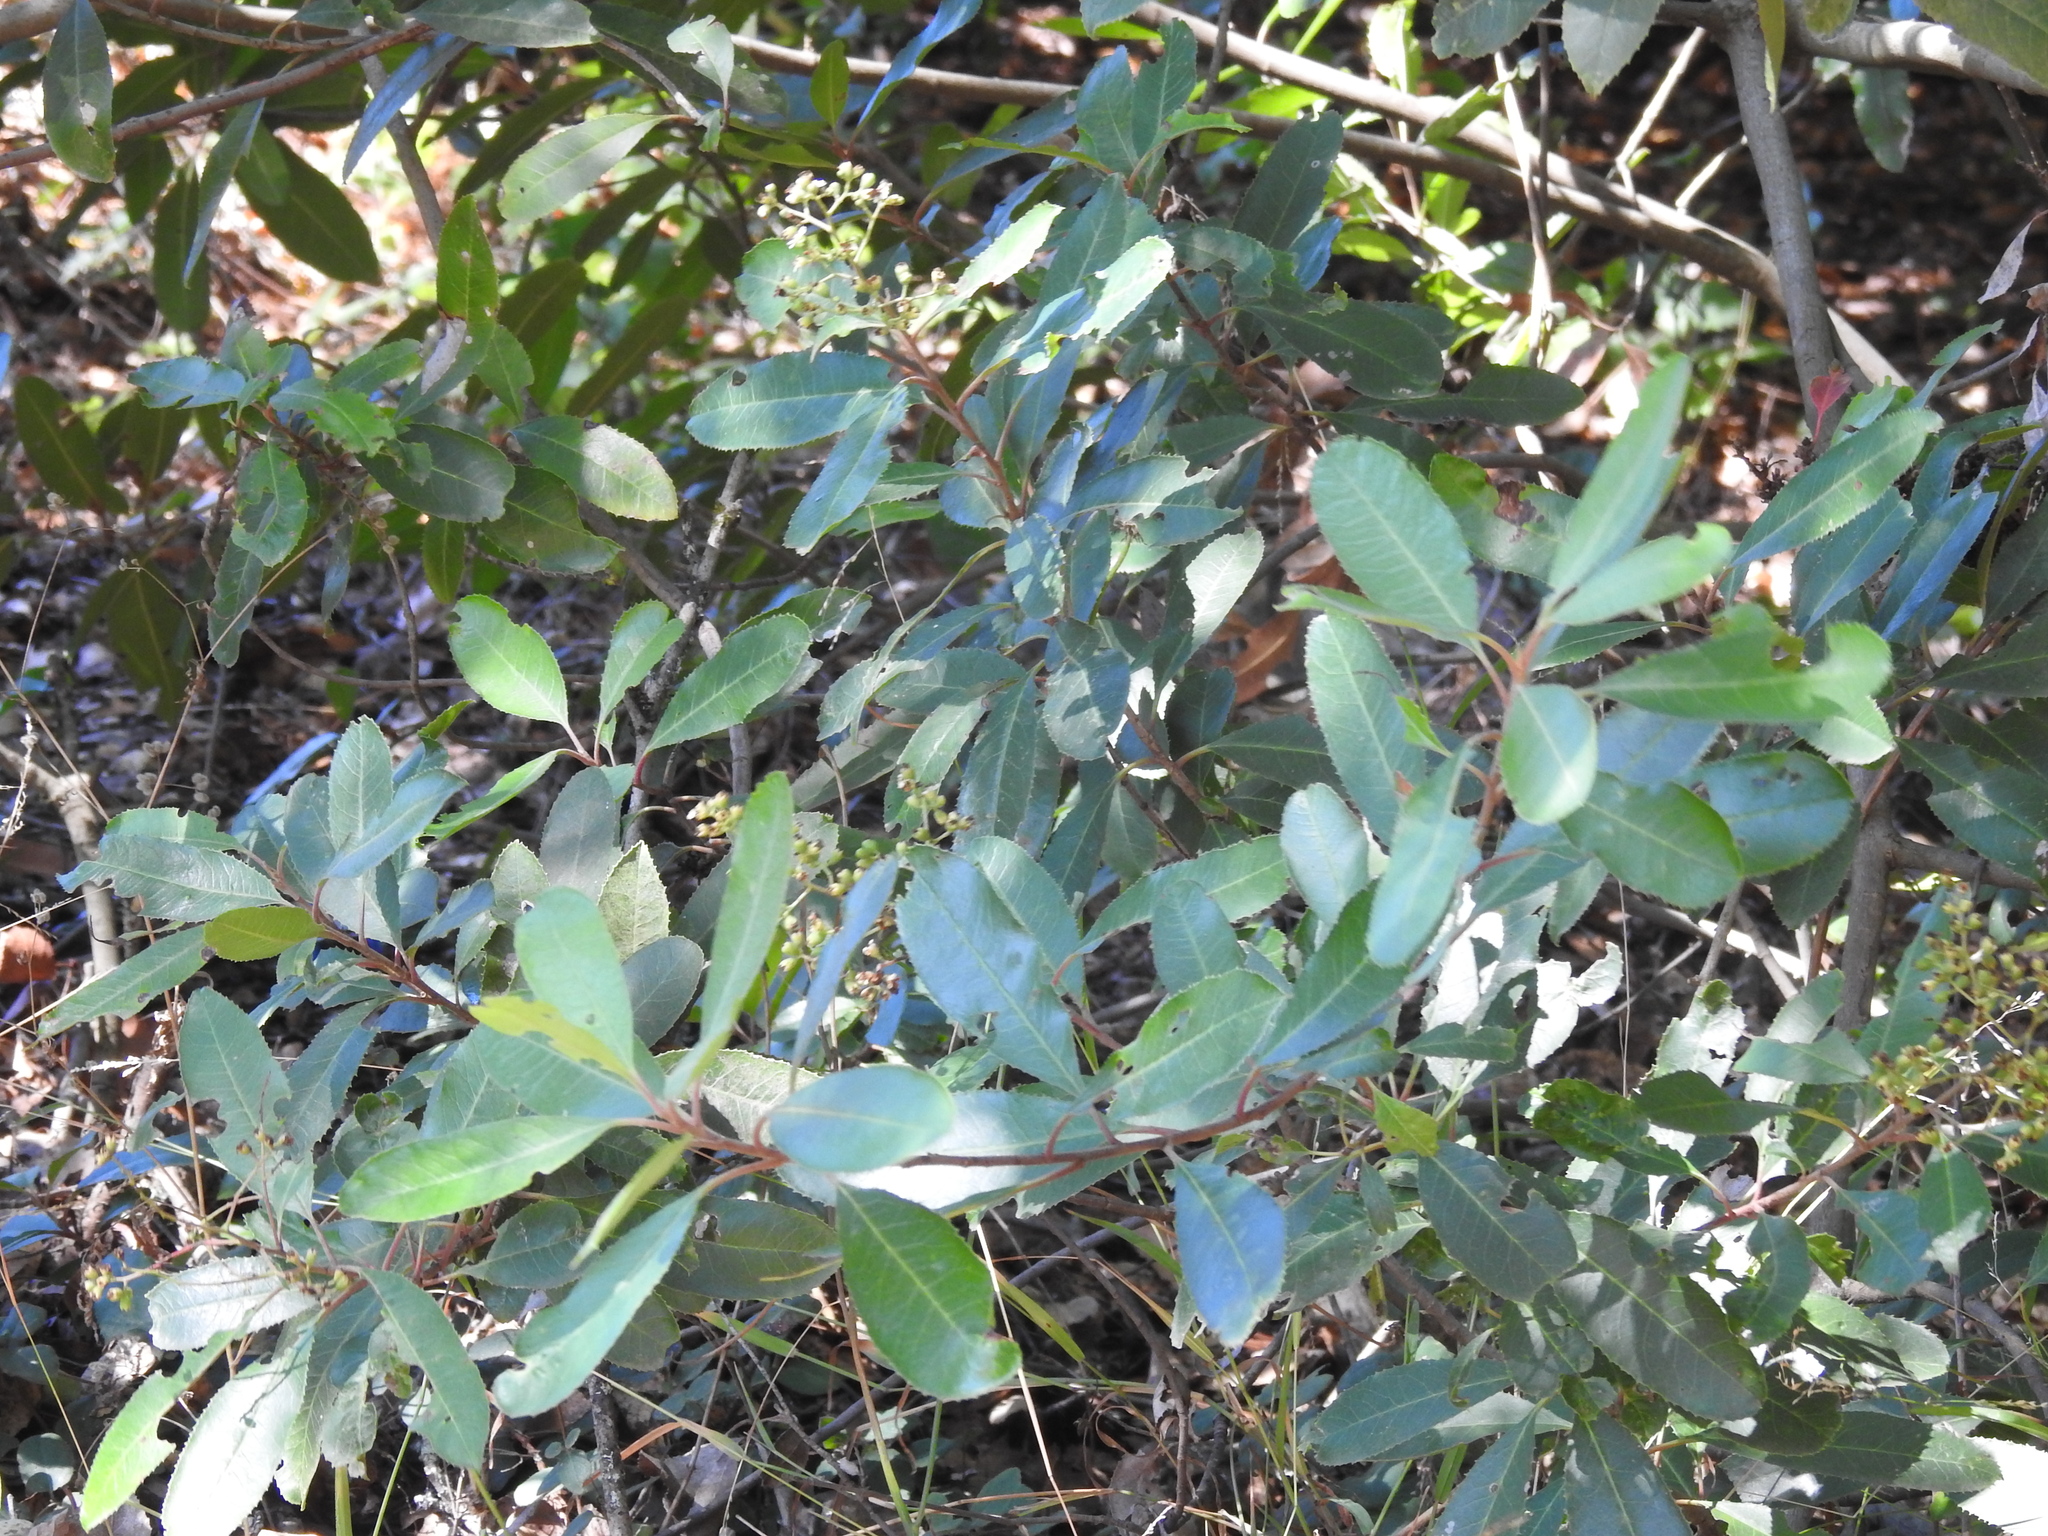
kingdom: Plantae
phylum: Tracheophyta
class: Magnoliopsida
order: Rosales
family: Rosaceae
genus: Heteromeles
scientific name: Heteromeles arbutifolia
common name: California-holly
